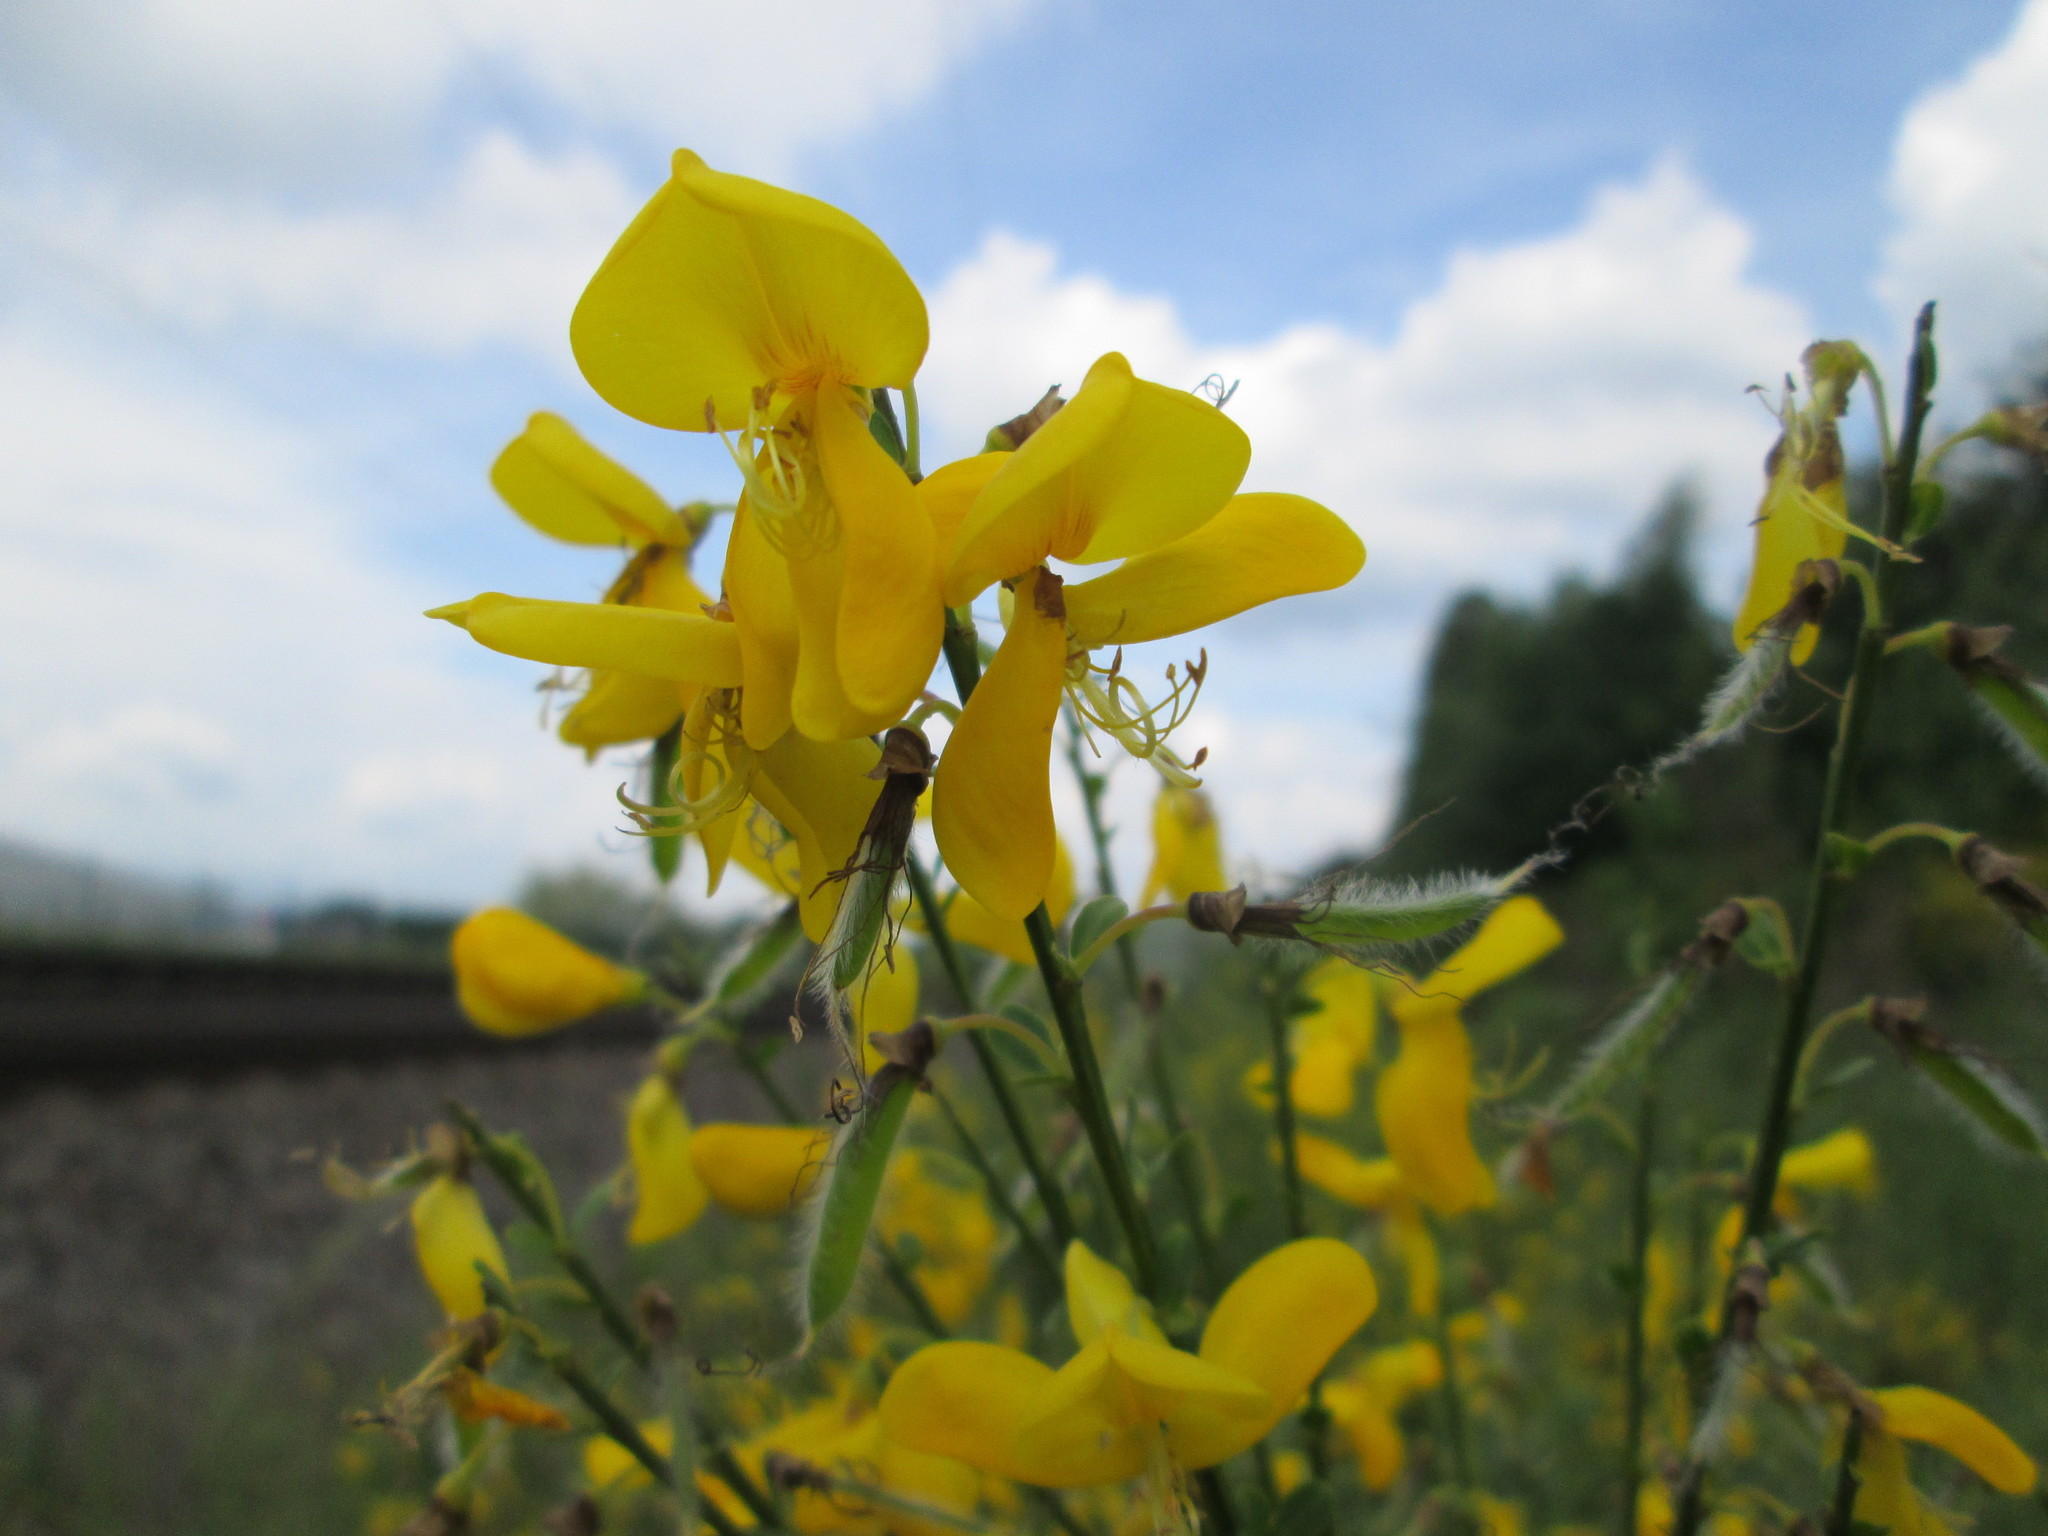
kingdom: Plantae
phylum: Tracheophyta
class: Magnoliopsida
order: Fabales
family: Fabaceae
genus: Cytisus
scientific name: Cytisus scoparius
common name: Scotch broom
